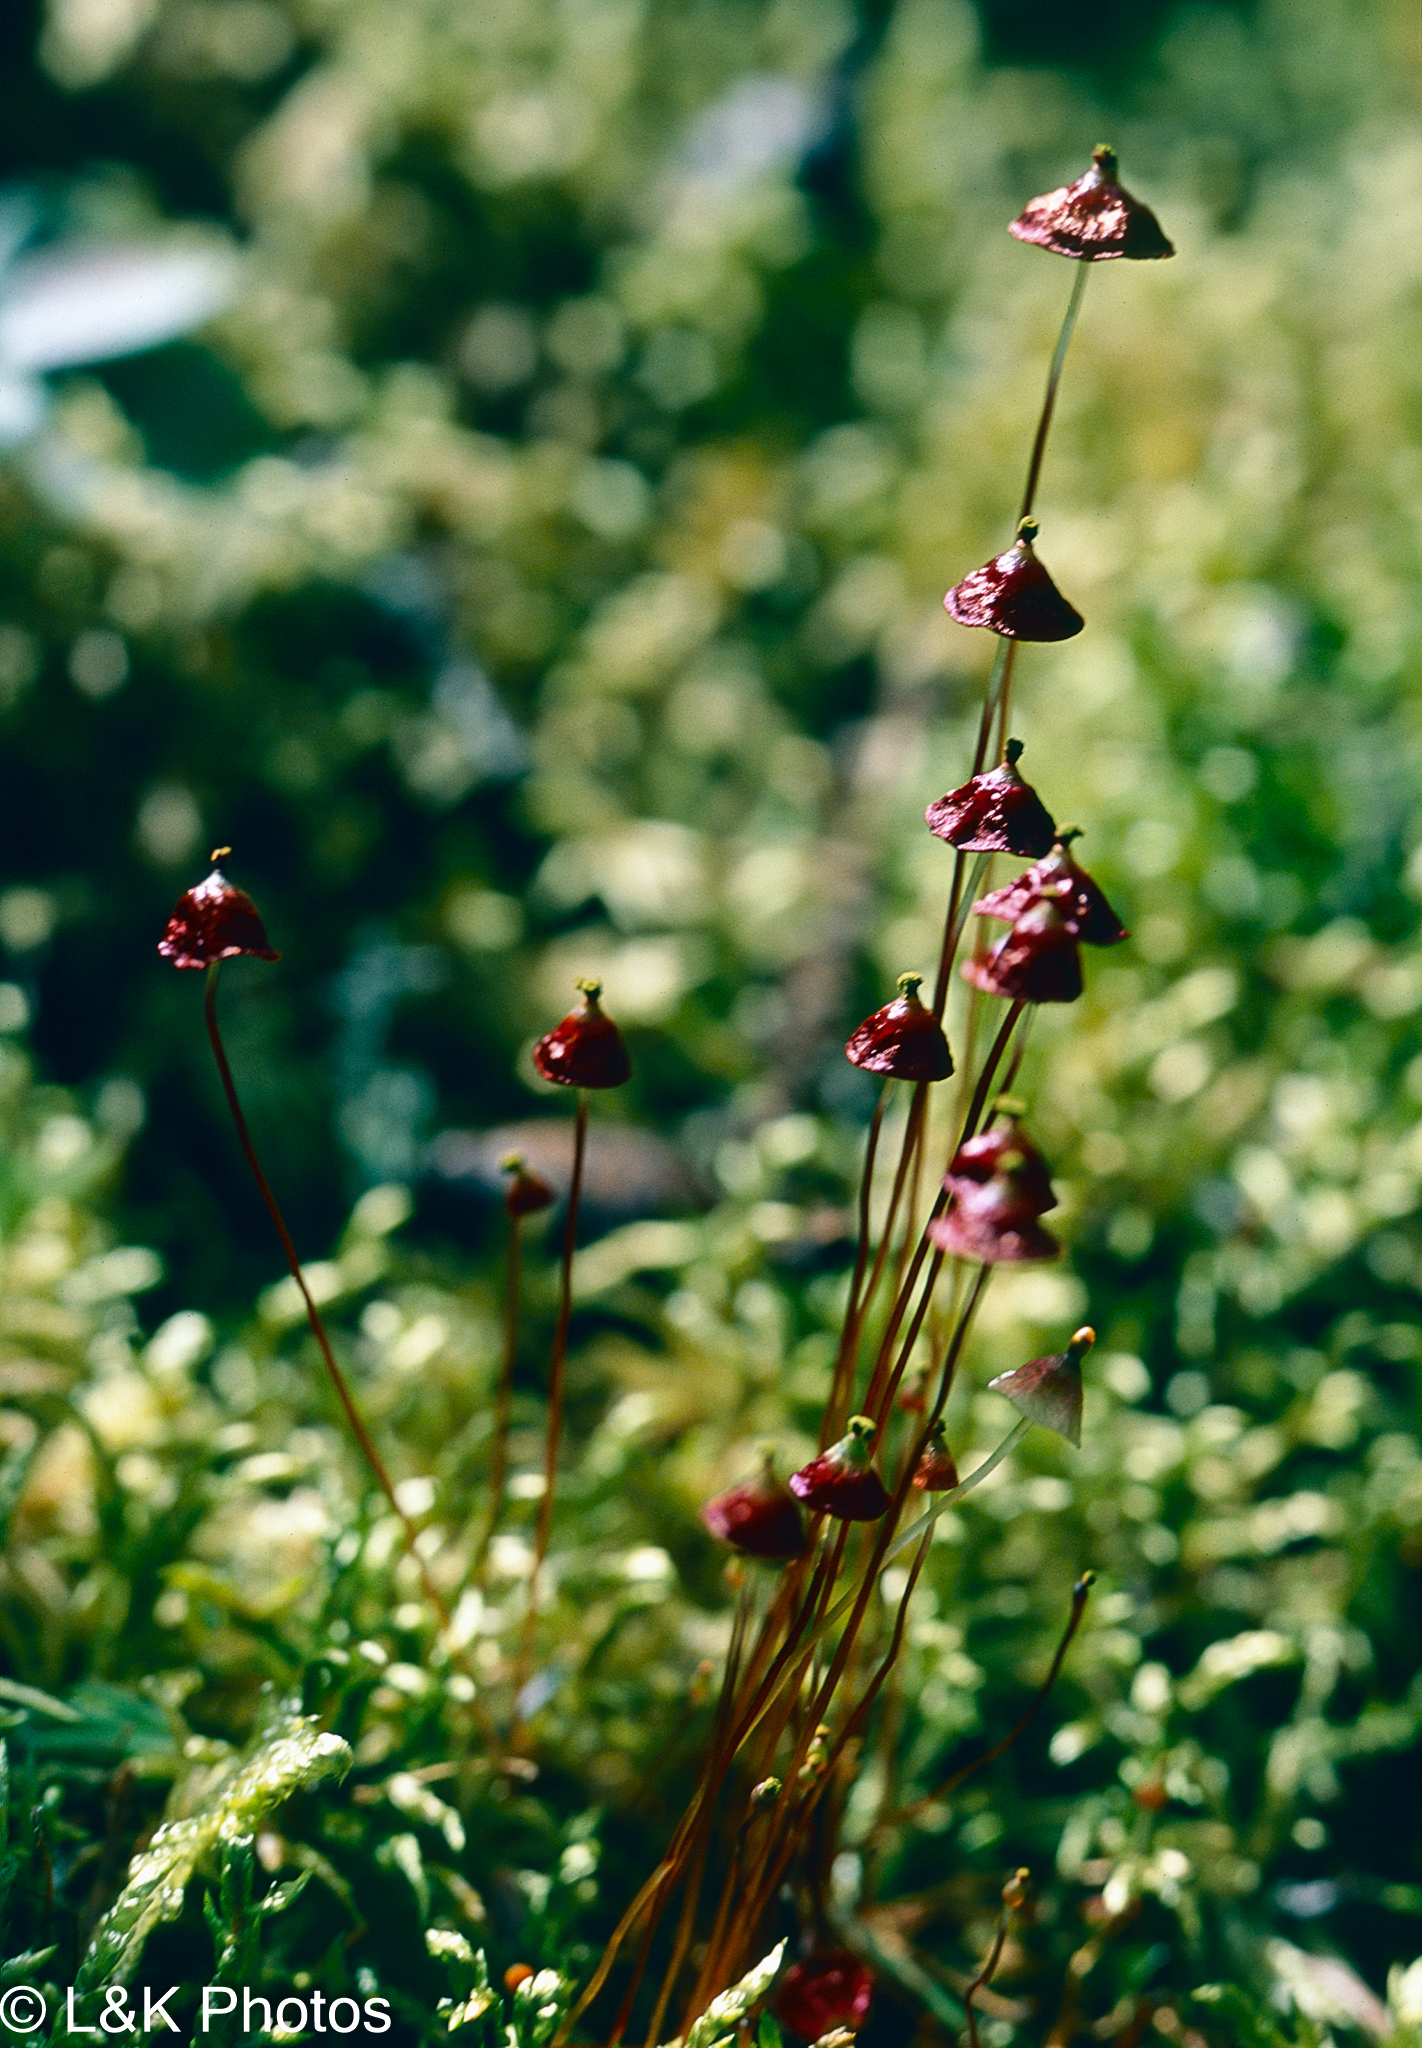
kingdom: Plantae
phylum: Bryophyta
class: Bryopsida
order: Splachnales
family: Splachnaceae
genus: Splachnum
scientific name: Splachnum rubrum
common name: Red dung moss
